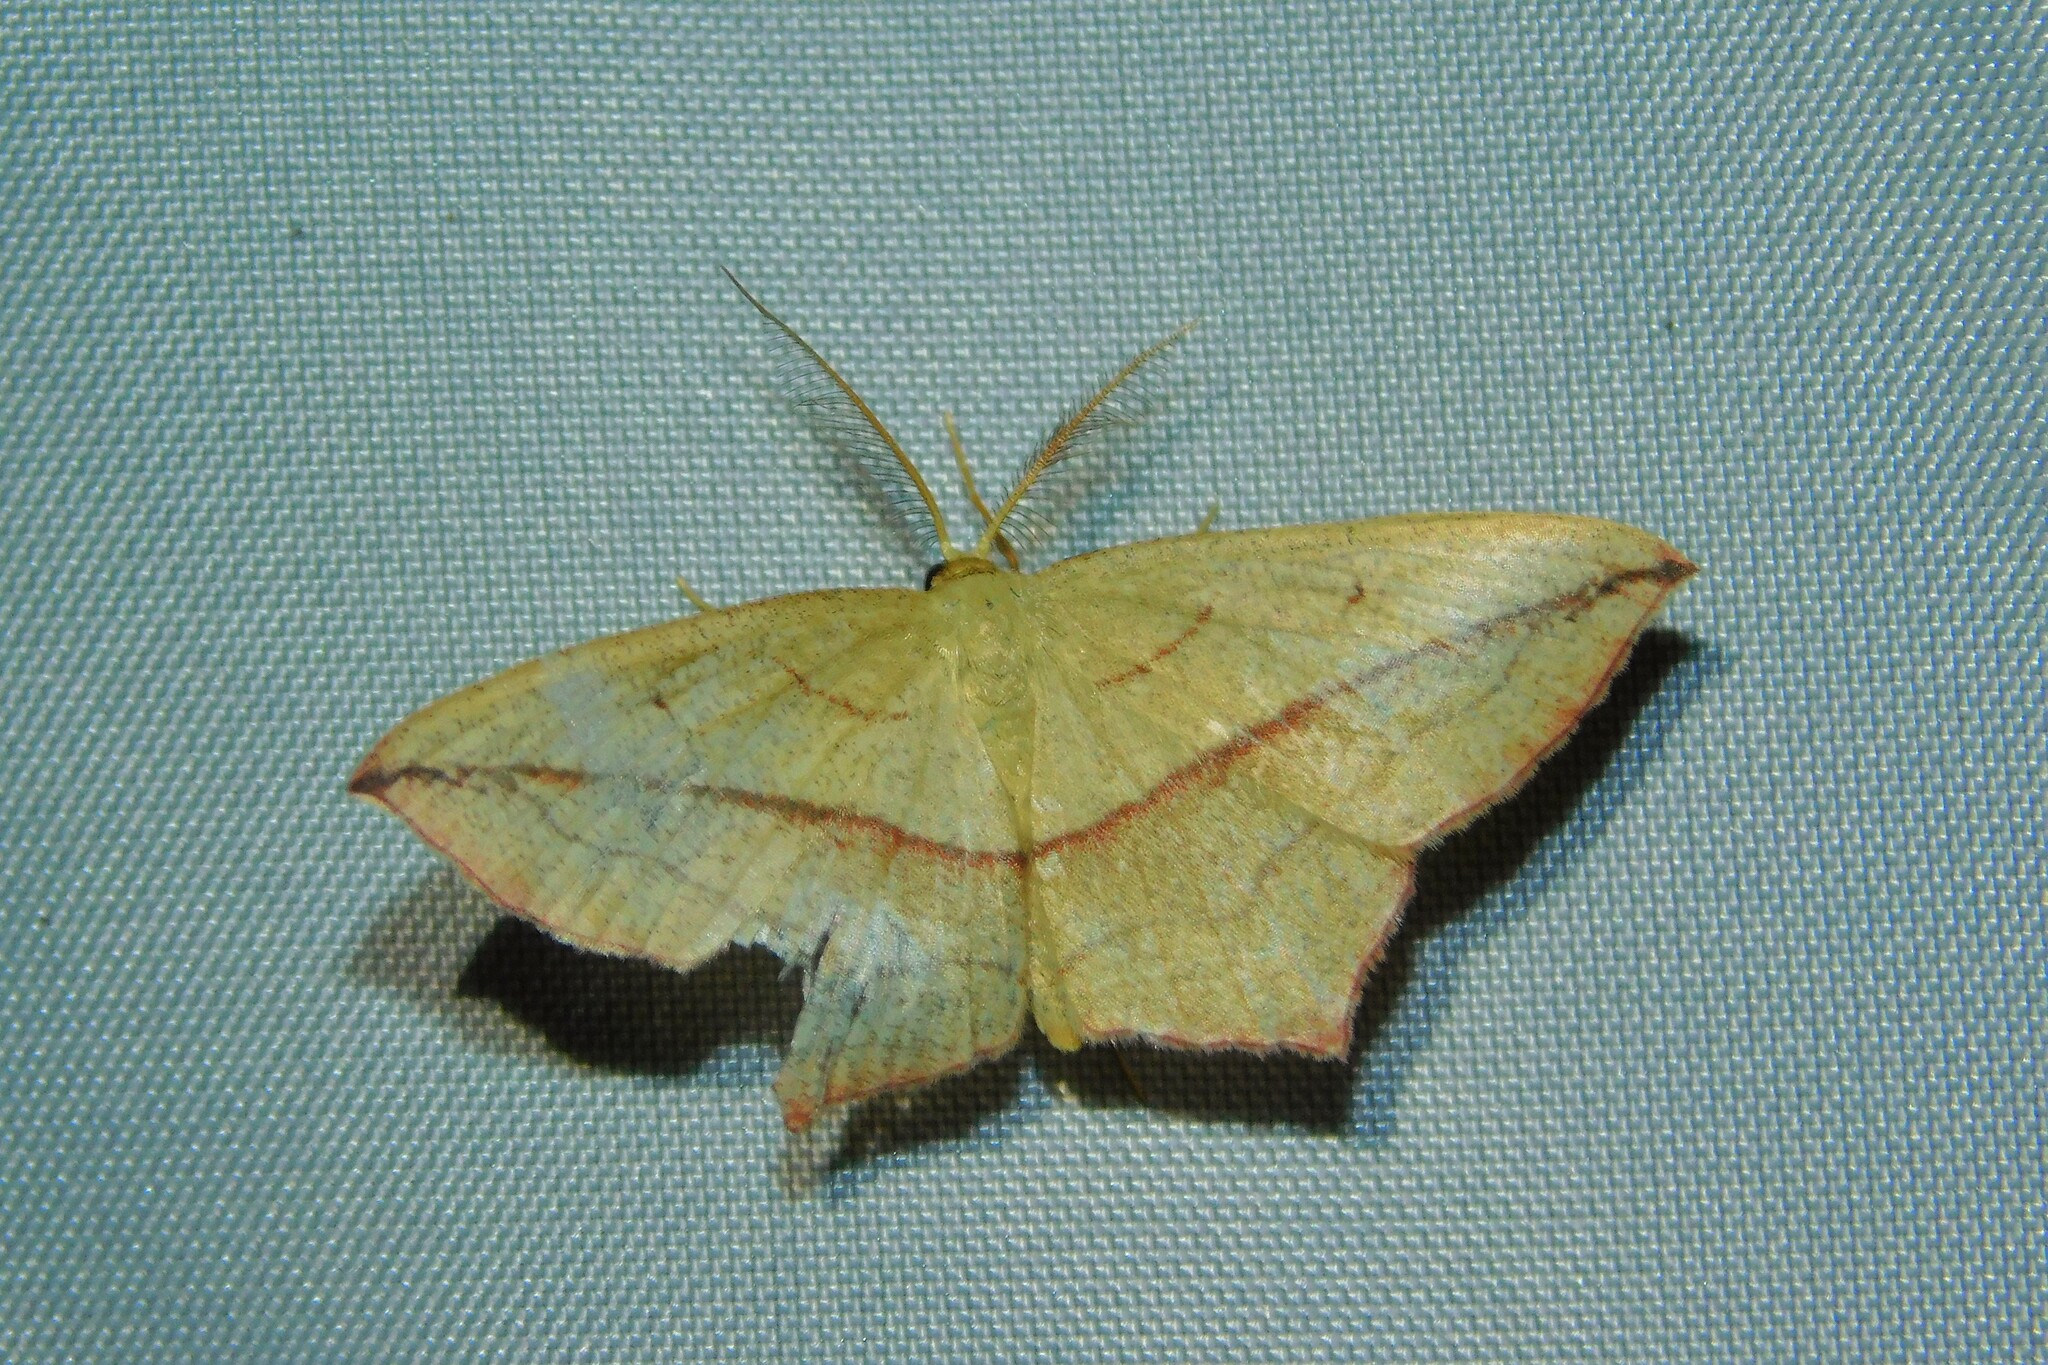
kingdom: Animalia
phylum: Arthropoda
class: Insecta
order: Lepidoptera
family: Geometridae
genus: Timandra
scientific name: Timandra comae
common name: Blood-vein
